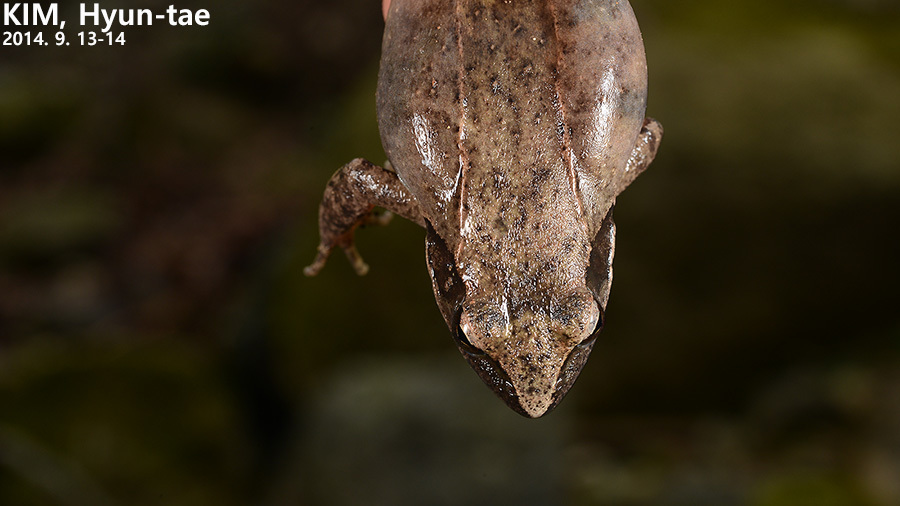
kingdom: Animalia
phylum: Chordata
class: Amphibia
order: Anura
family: Ranidae
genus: Rana
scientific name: Rana uenoi
